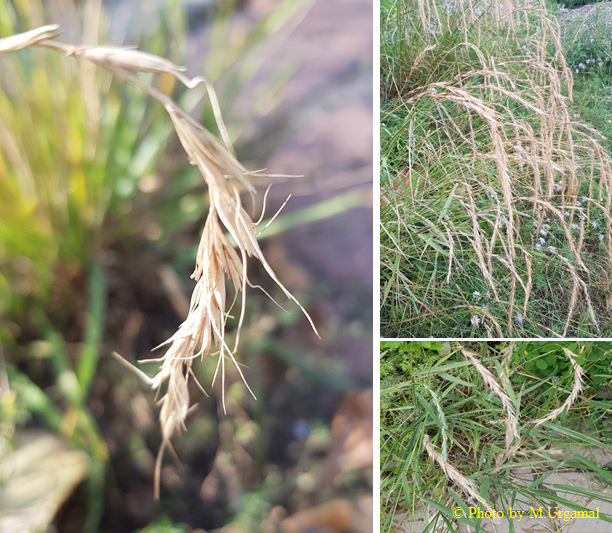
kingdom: Plantae
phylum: Tracheophyta
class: Liliopsida
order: Poales
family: Poaceae
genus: Elymus
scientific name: Elymus sibiricus
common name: Siberian wildrye
